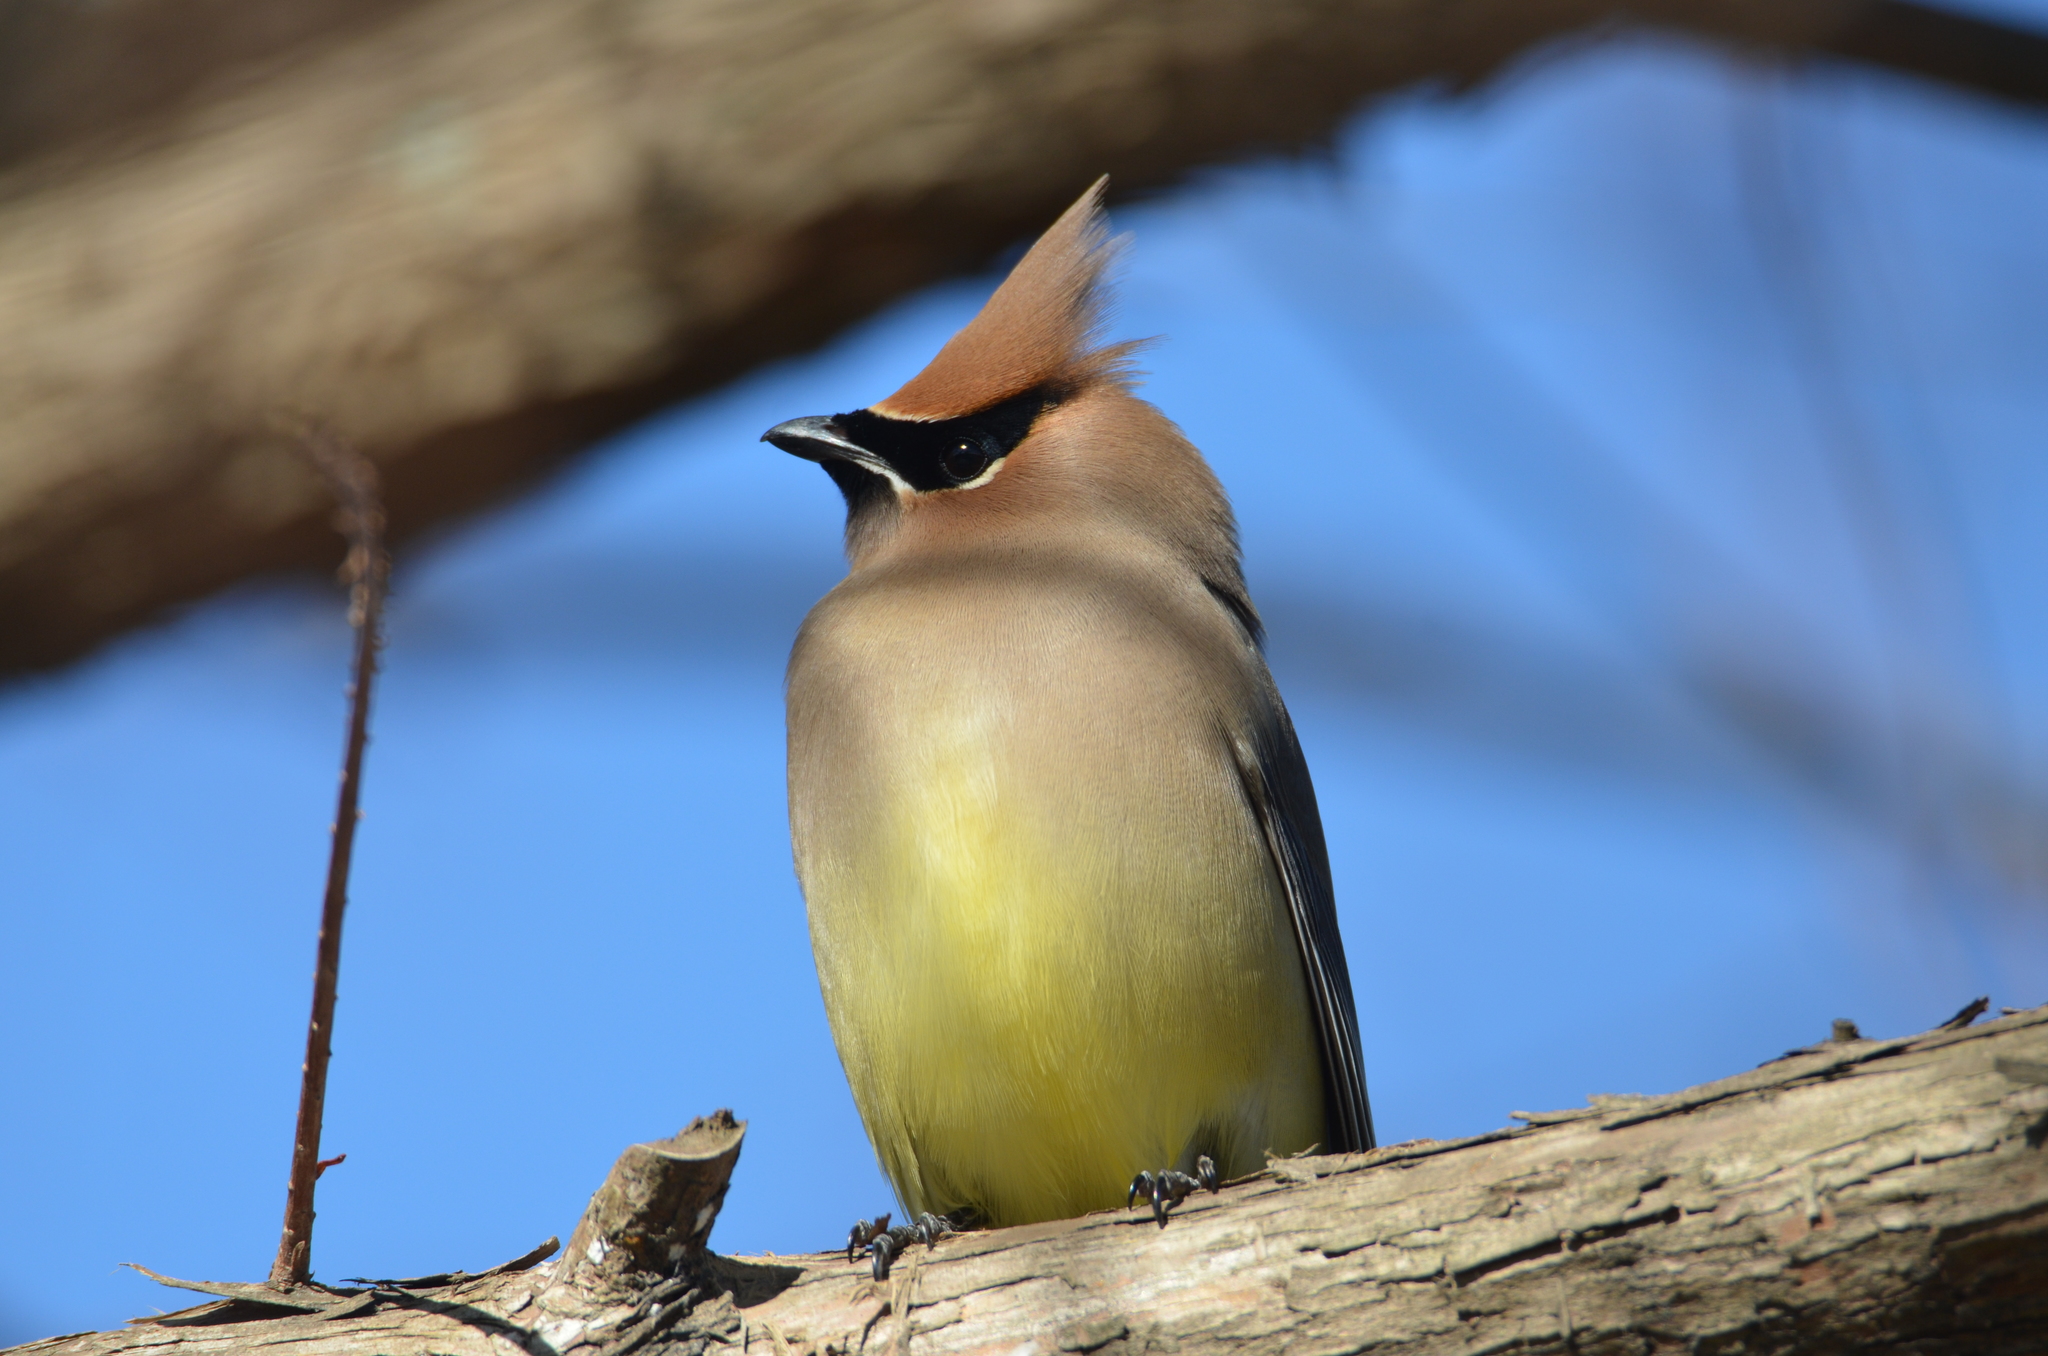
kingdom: Animalia
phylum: Chordata
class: Aves
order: Passeriformes
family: Bombycillidae
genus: Bombycilla
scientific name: Bombycilla cedrorum
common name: Cedar waxwing
